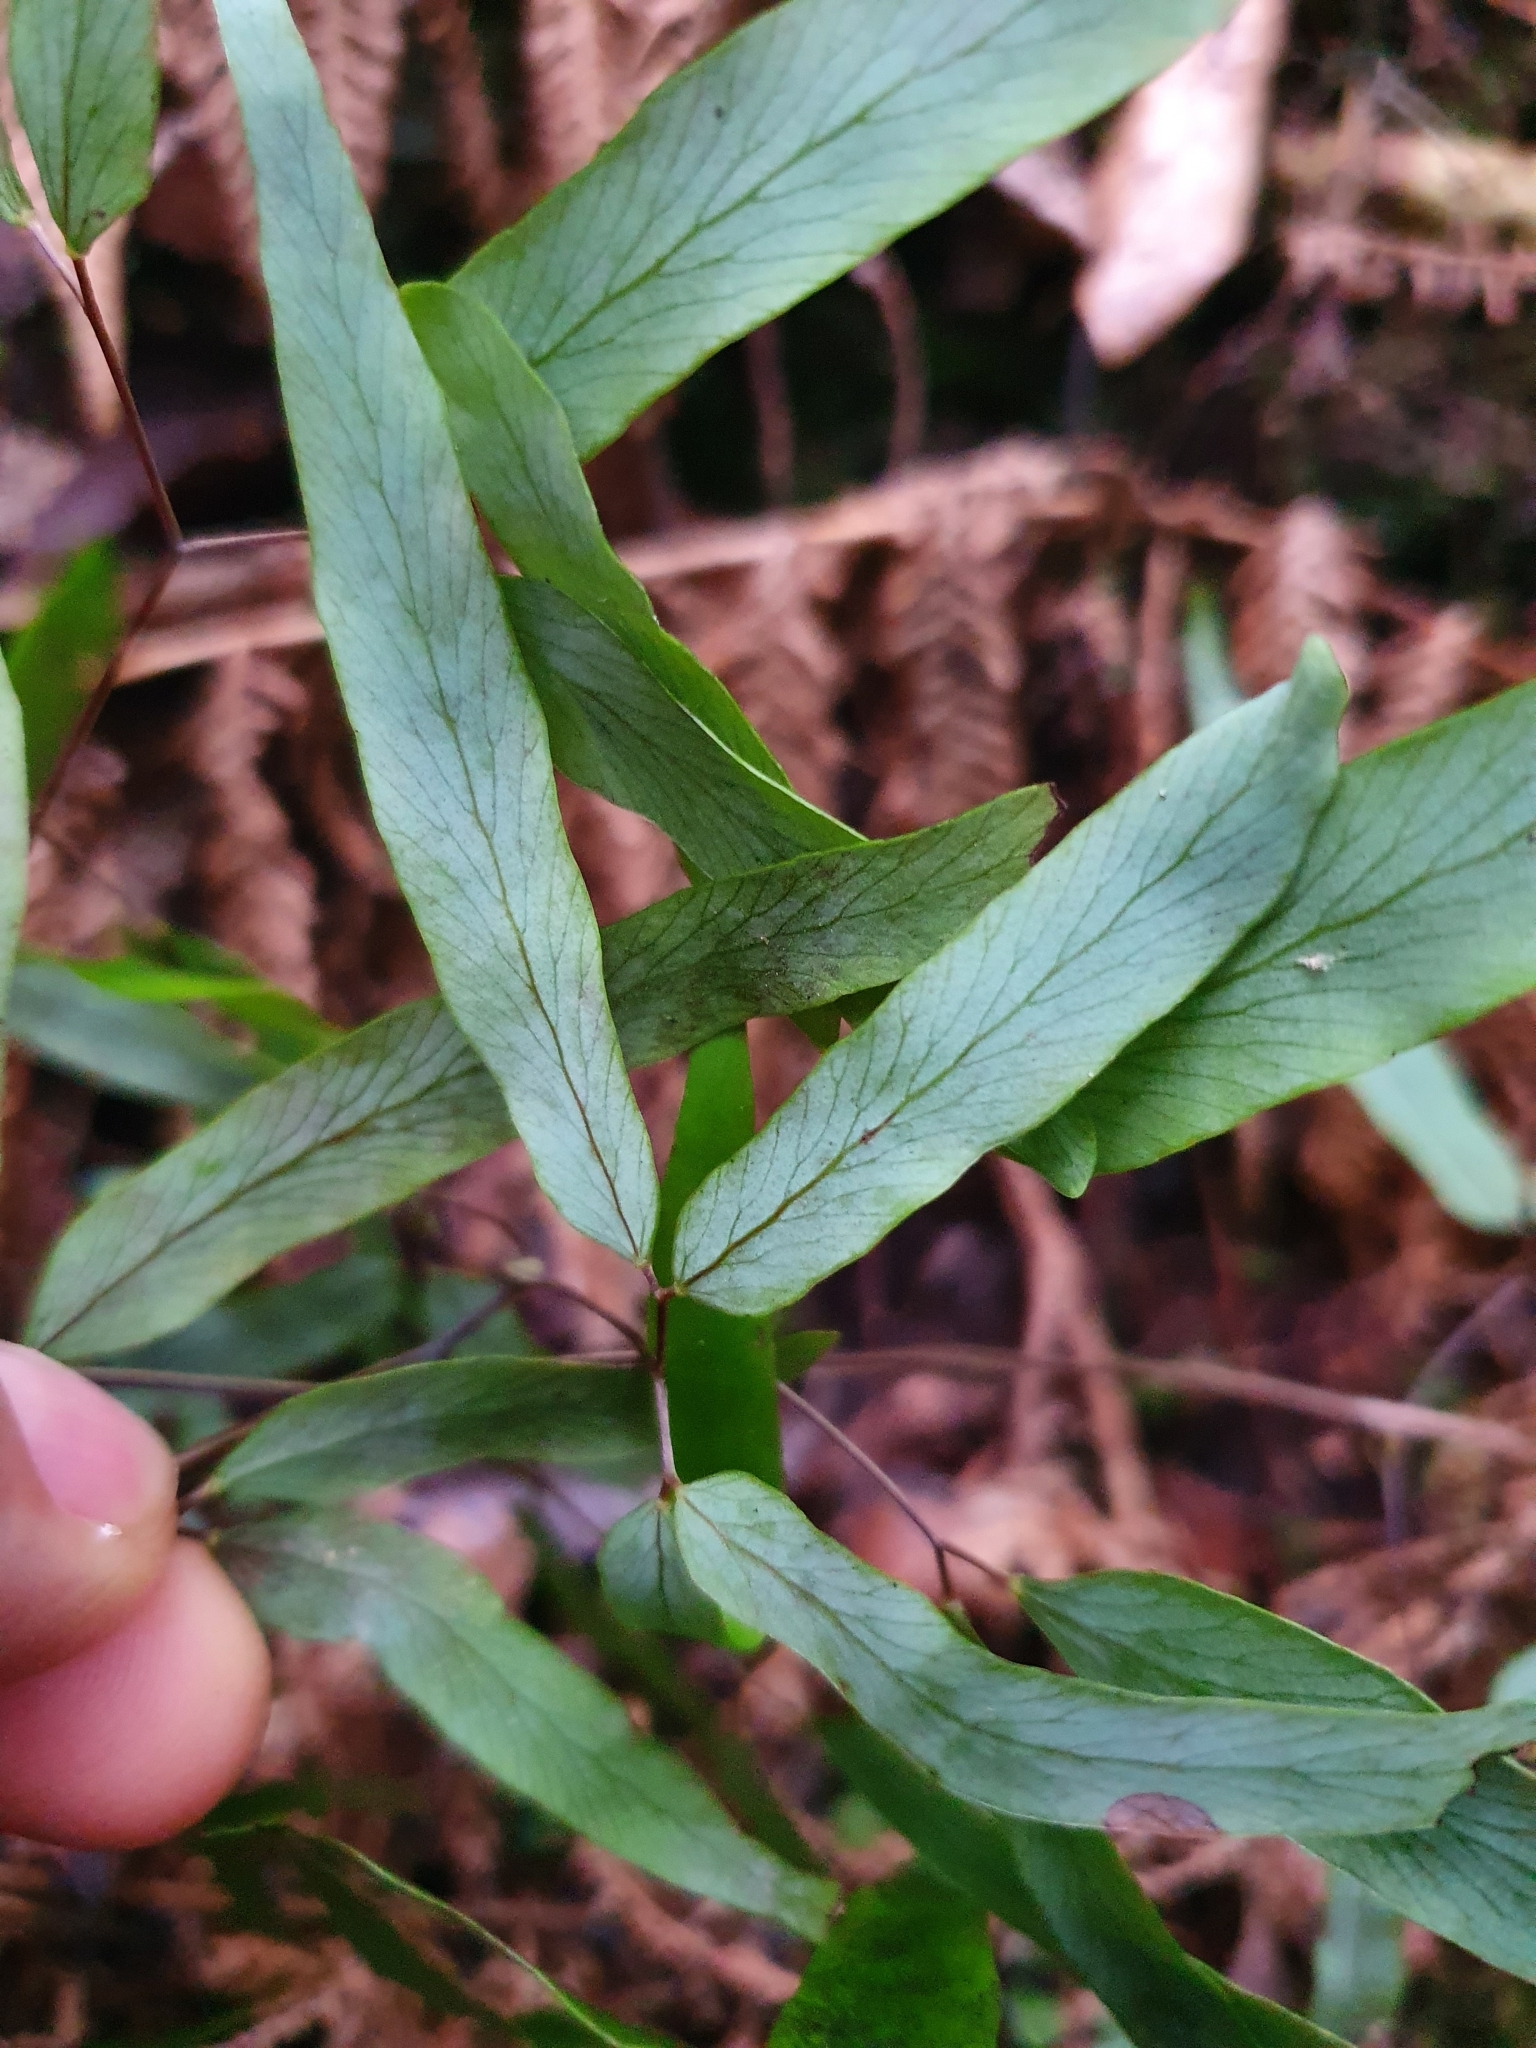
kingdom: Plantae
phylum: Tracheophyta
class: Polypodiopsida
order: Schizaeales
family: Lygodiaceae
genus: Lygodium
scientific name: Lygodium articulatum
